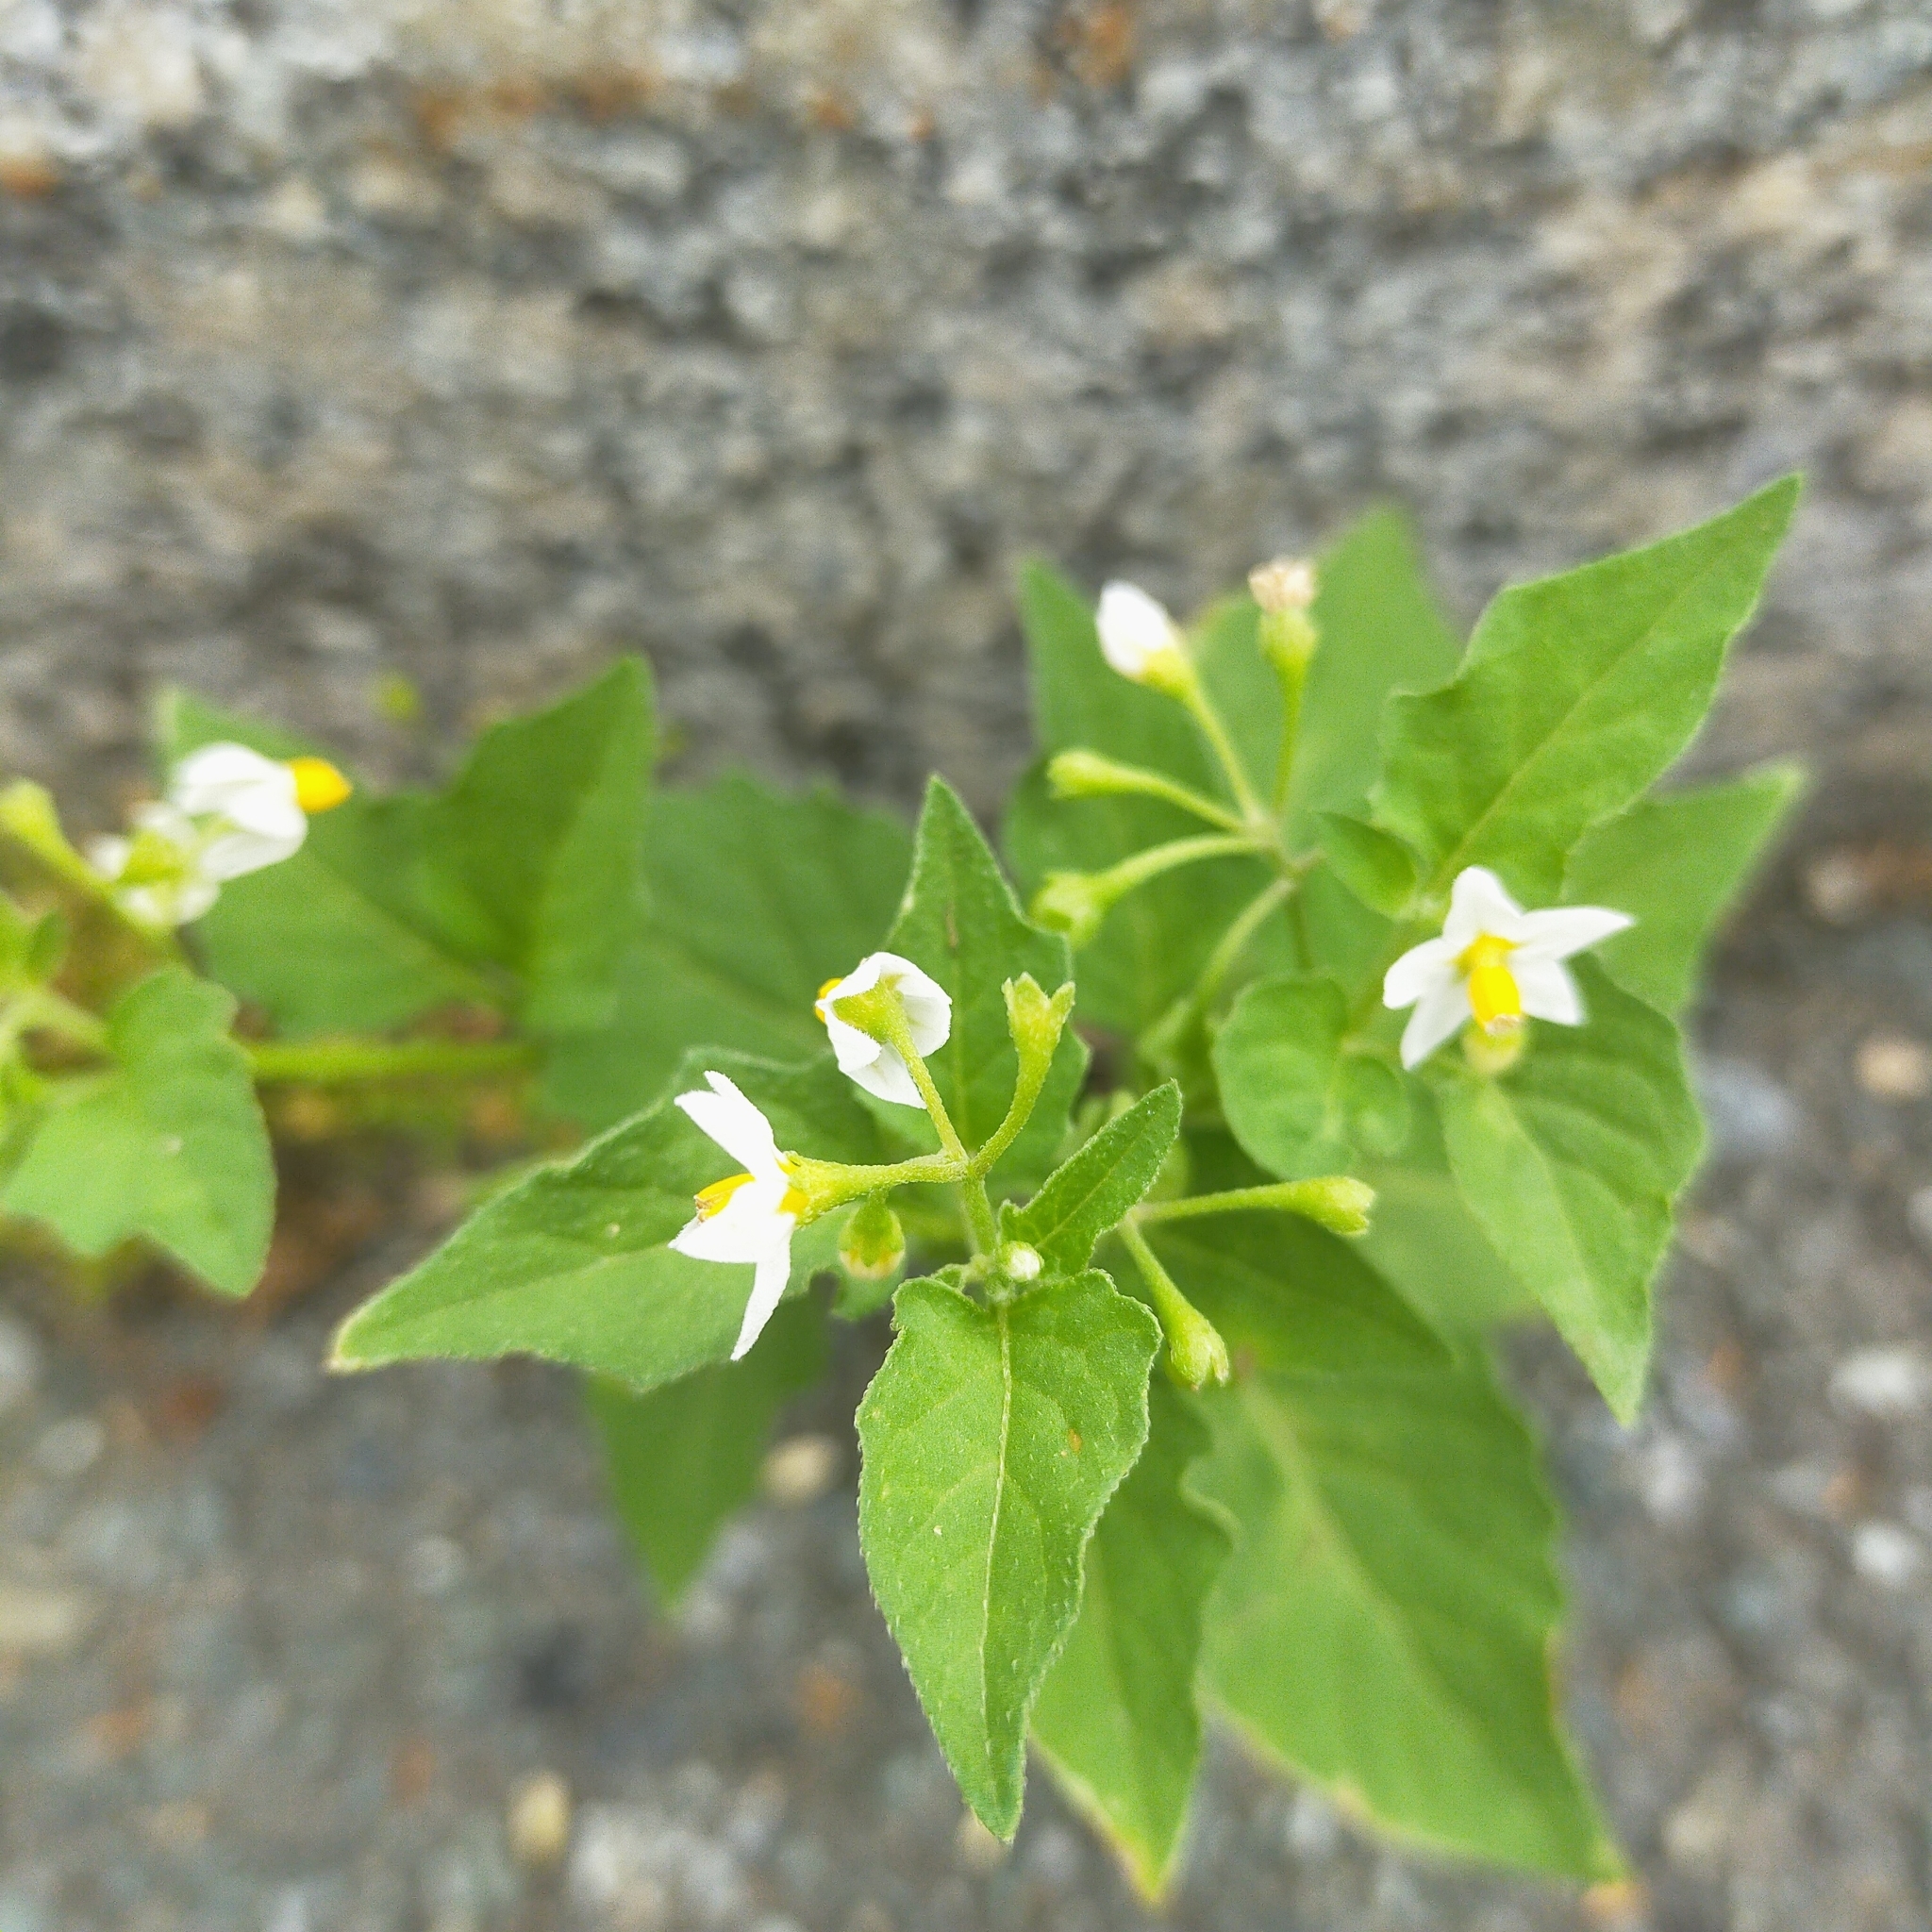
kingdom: Plantae
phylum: Tracheophyta
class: Magnoliopsida
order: Solanales
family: Solanaceae
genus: Solanum
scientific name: Solanum nigrum
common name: Black nightshade
